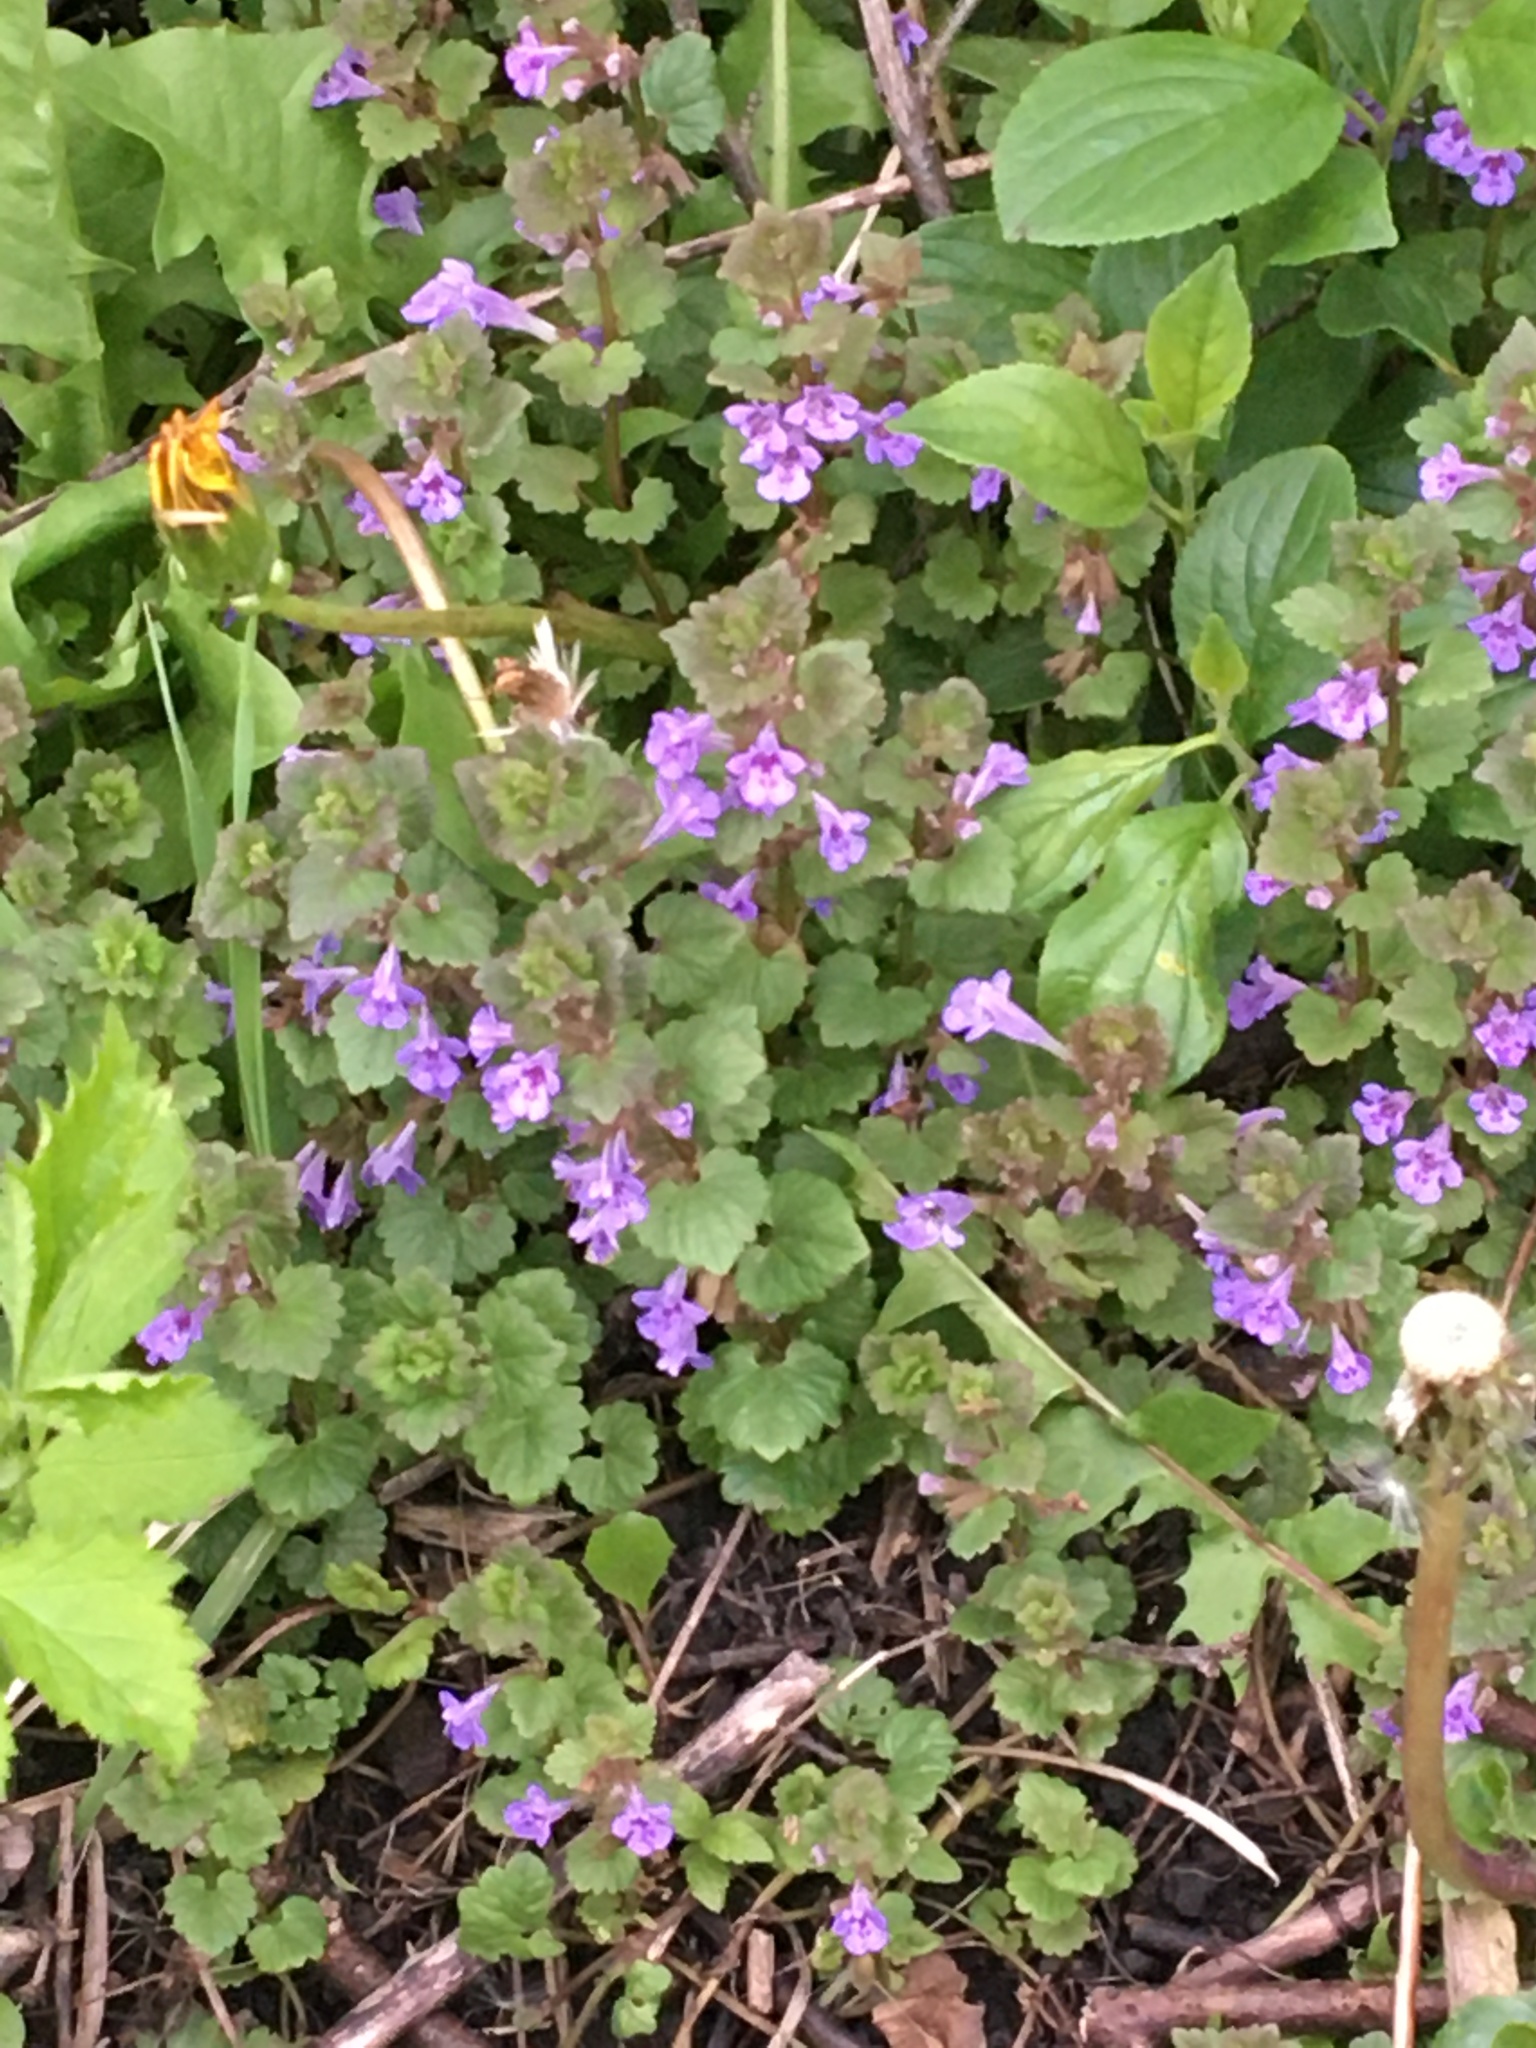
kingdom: Plantae
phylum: Tracheophyta
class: Magnoliopsida
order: Lamiales
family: Lamiaceae
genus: Glechoma
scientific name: Glechoma hederacea
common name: Ground ivy
